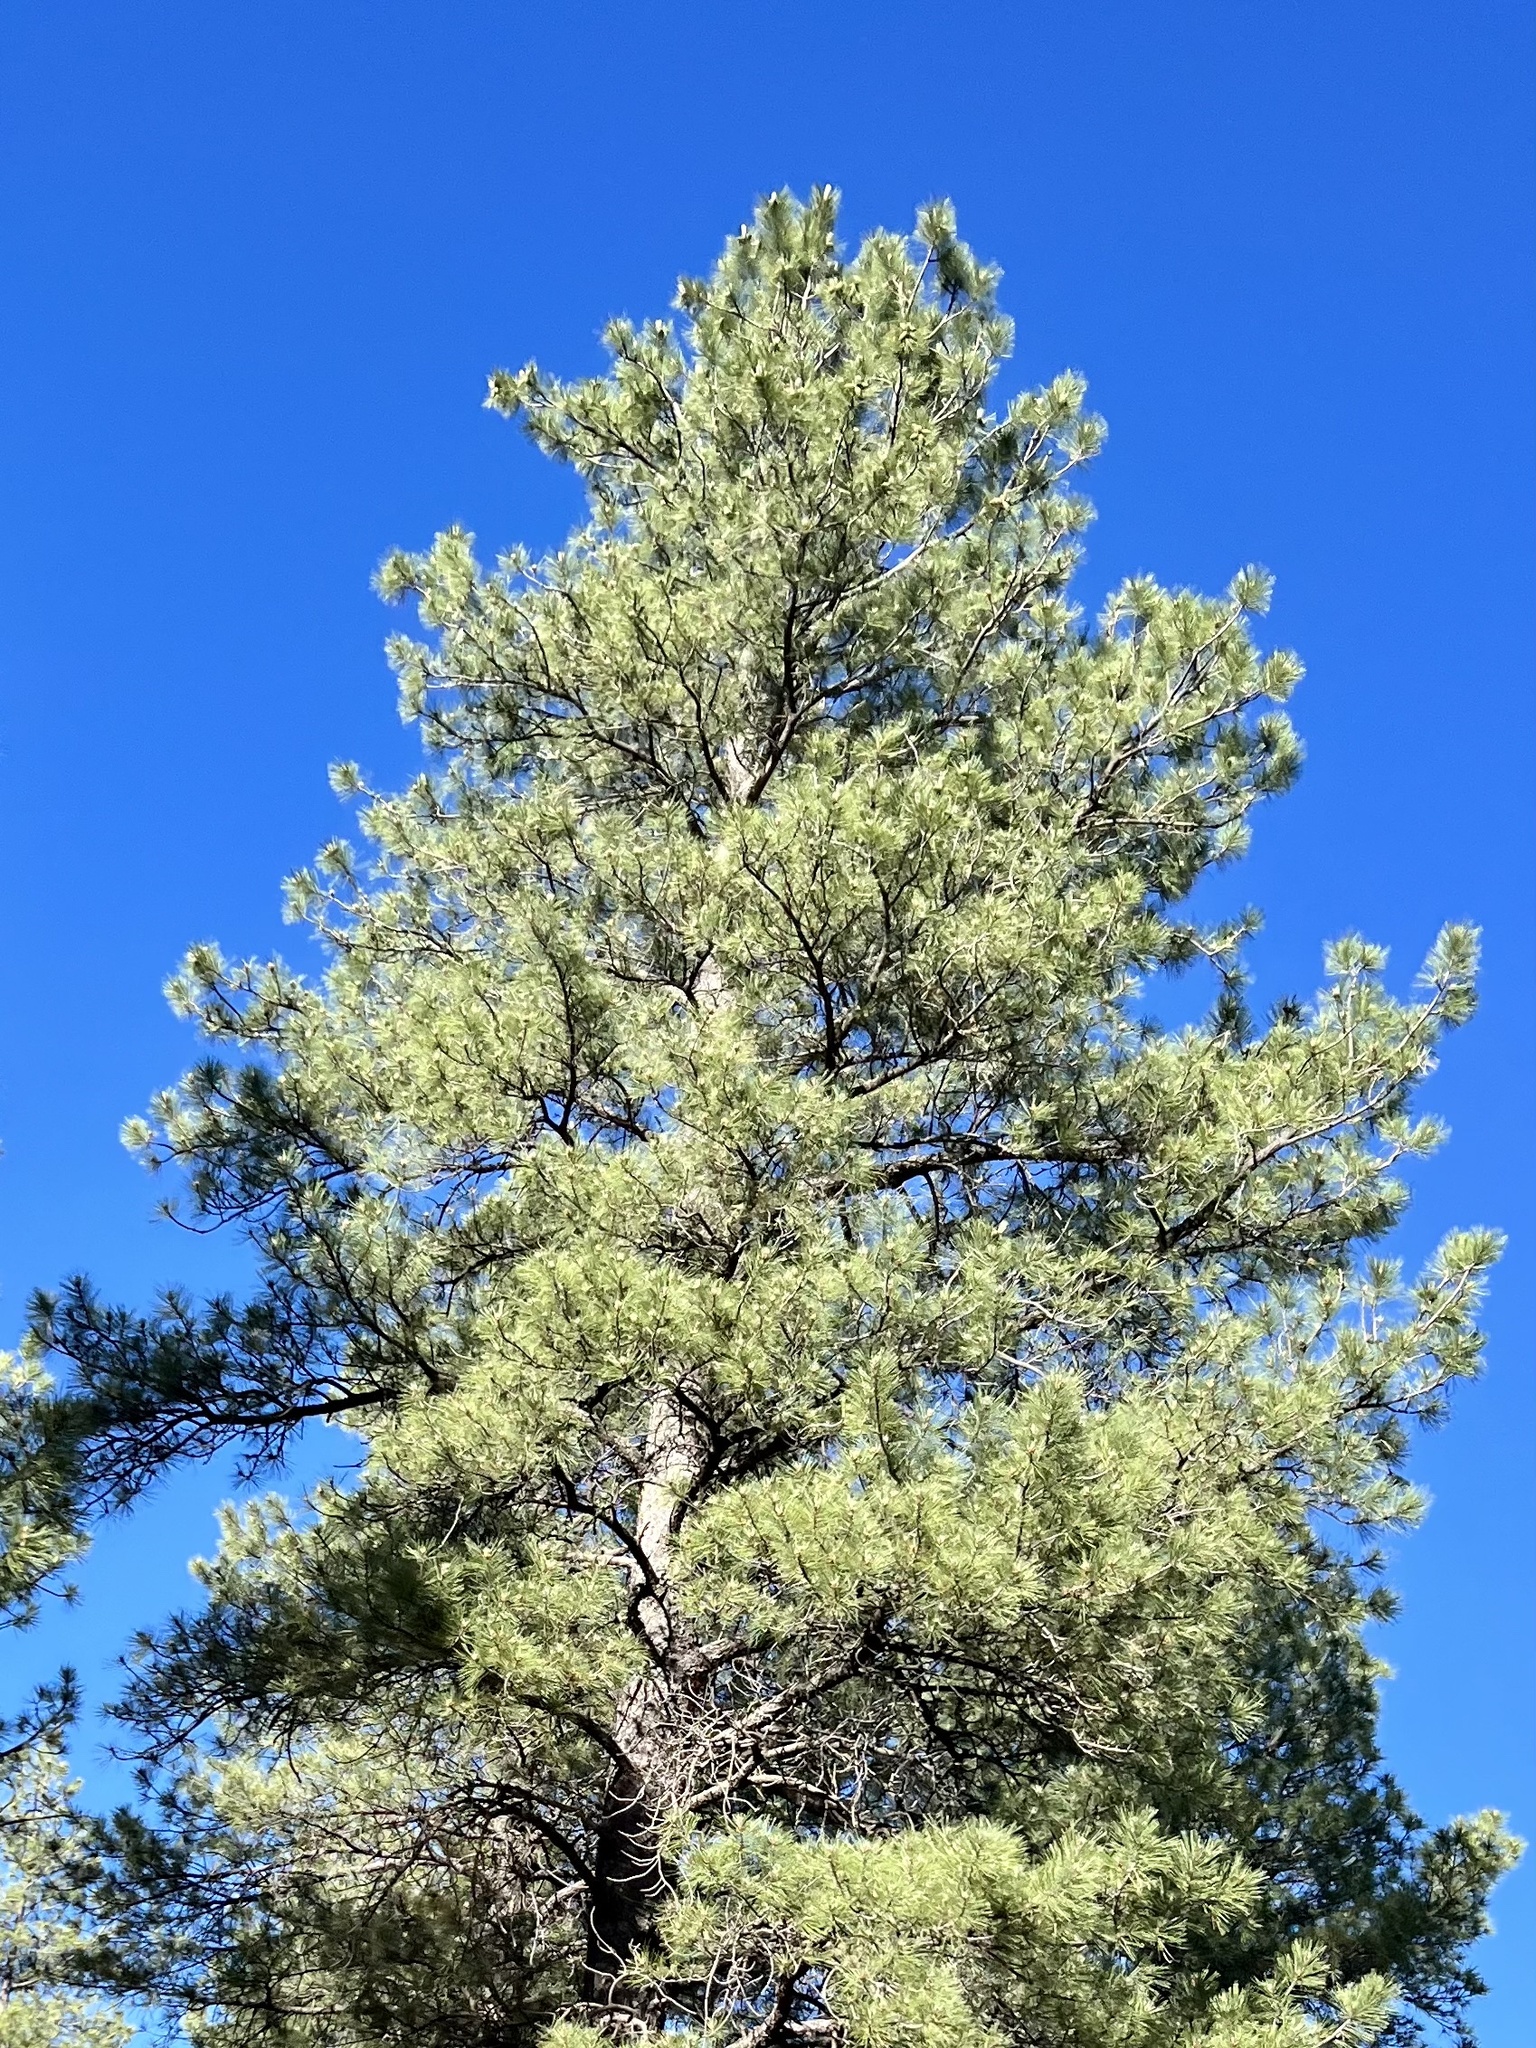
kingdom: Plantae
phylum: Tracheophyta
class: Pinopsida
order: Pinales
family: Pinaceae
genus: Pinus
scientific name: Pinus ponderosa
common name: Western yellow-pine
